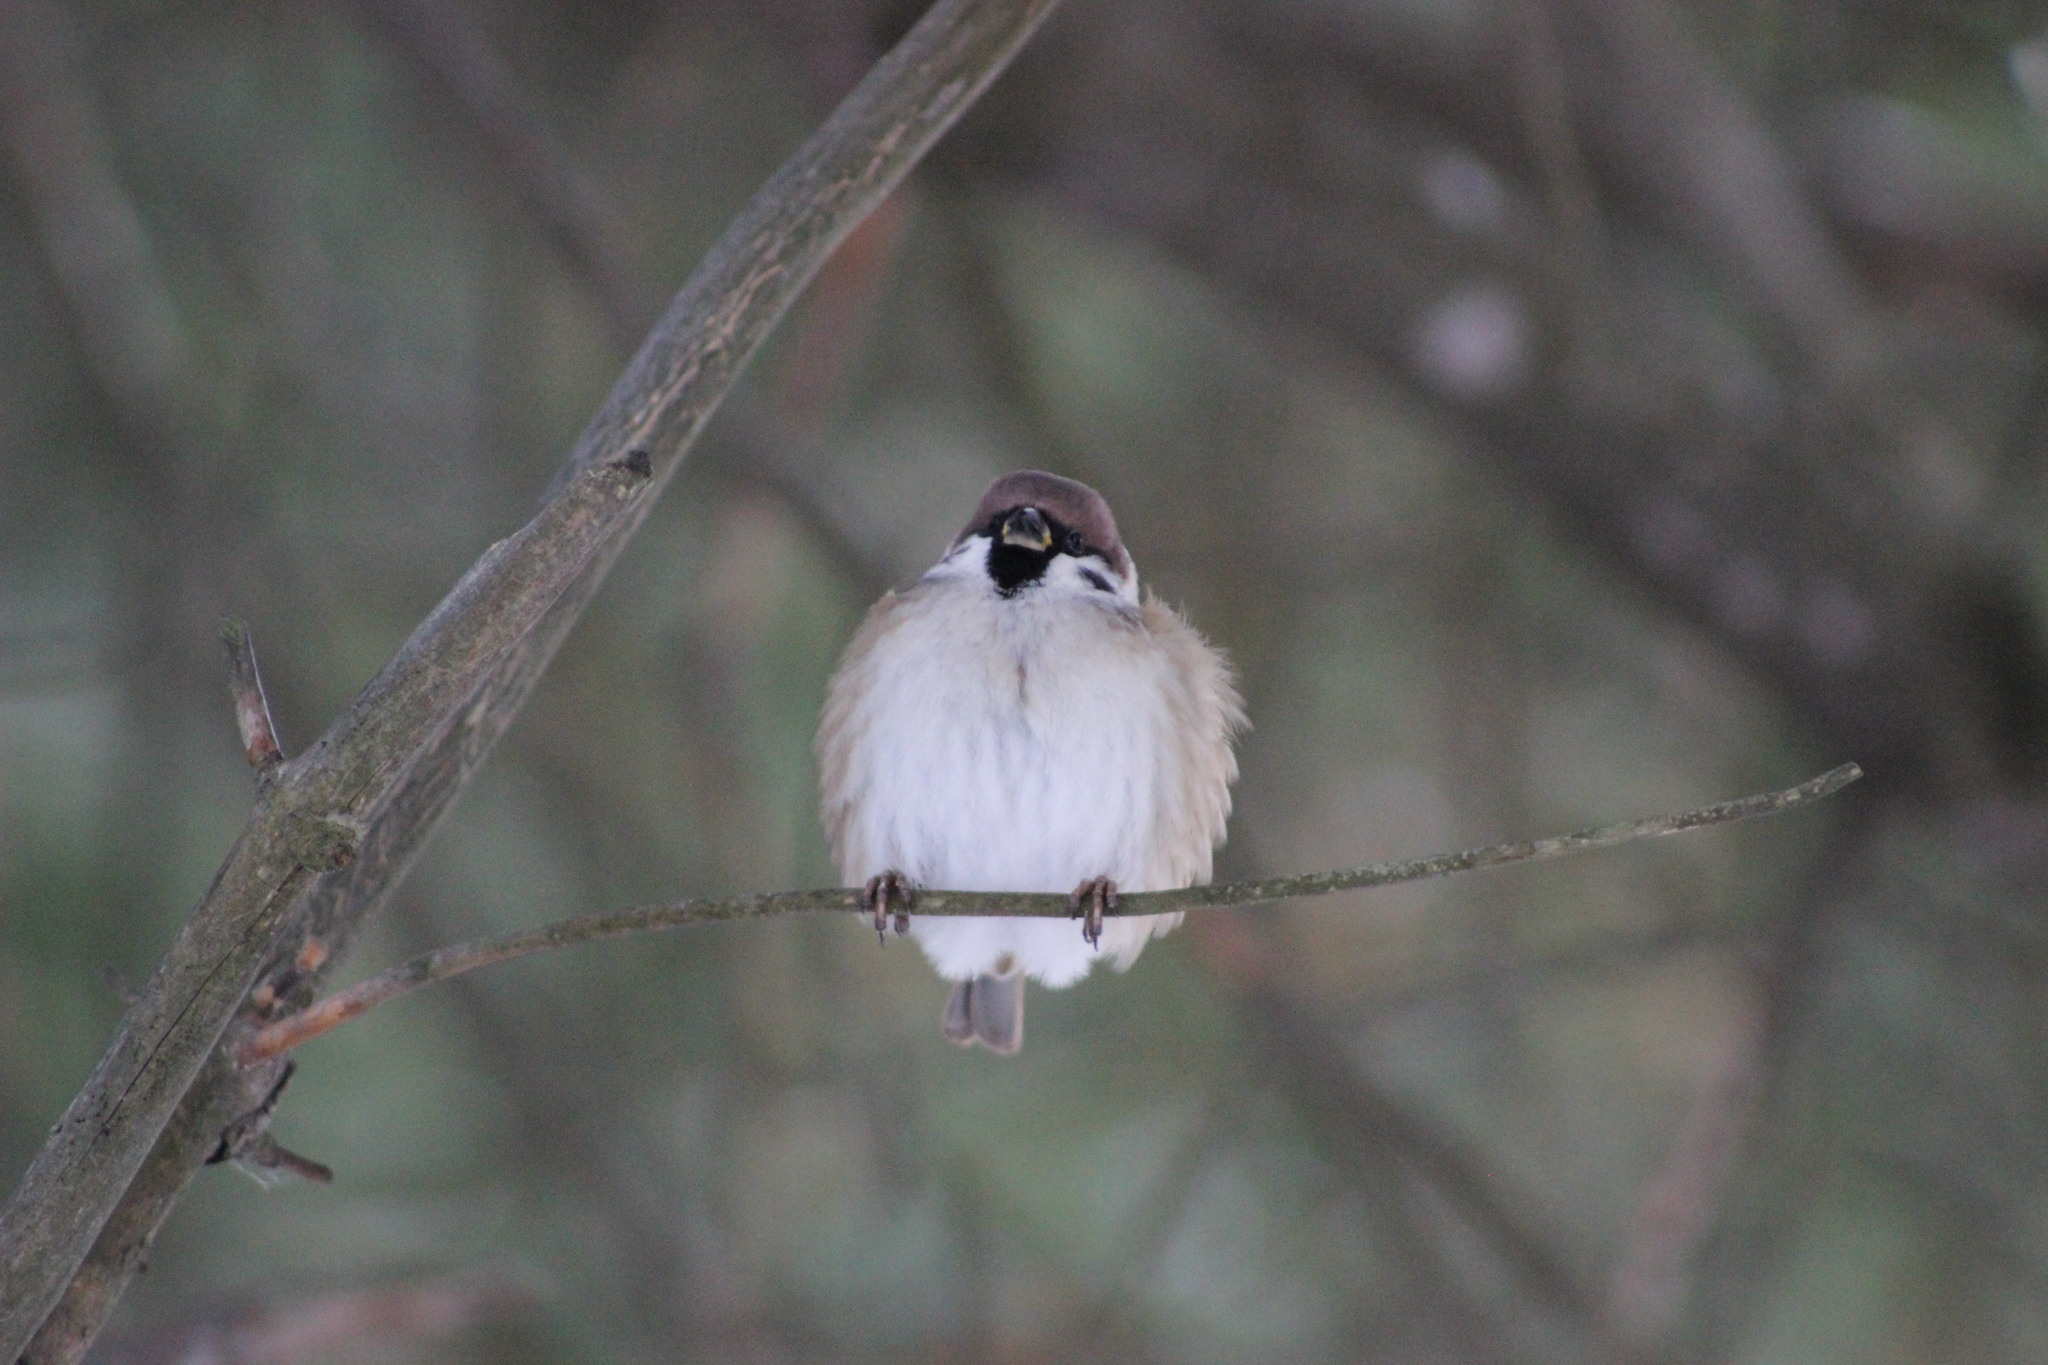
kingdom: Animalia
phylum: Chordata
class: Aves
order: Passeriformes
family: Passeridae
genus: Passer
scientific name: Passer montanus
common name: Eurasian tree sparrow
